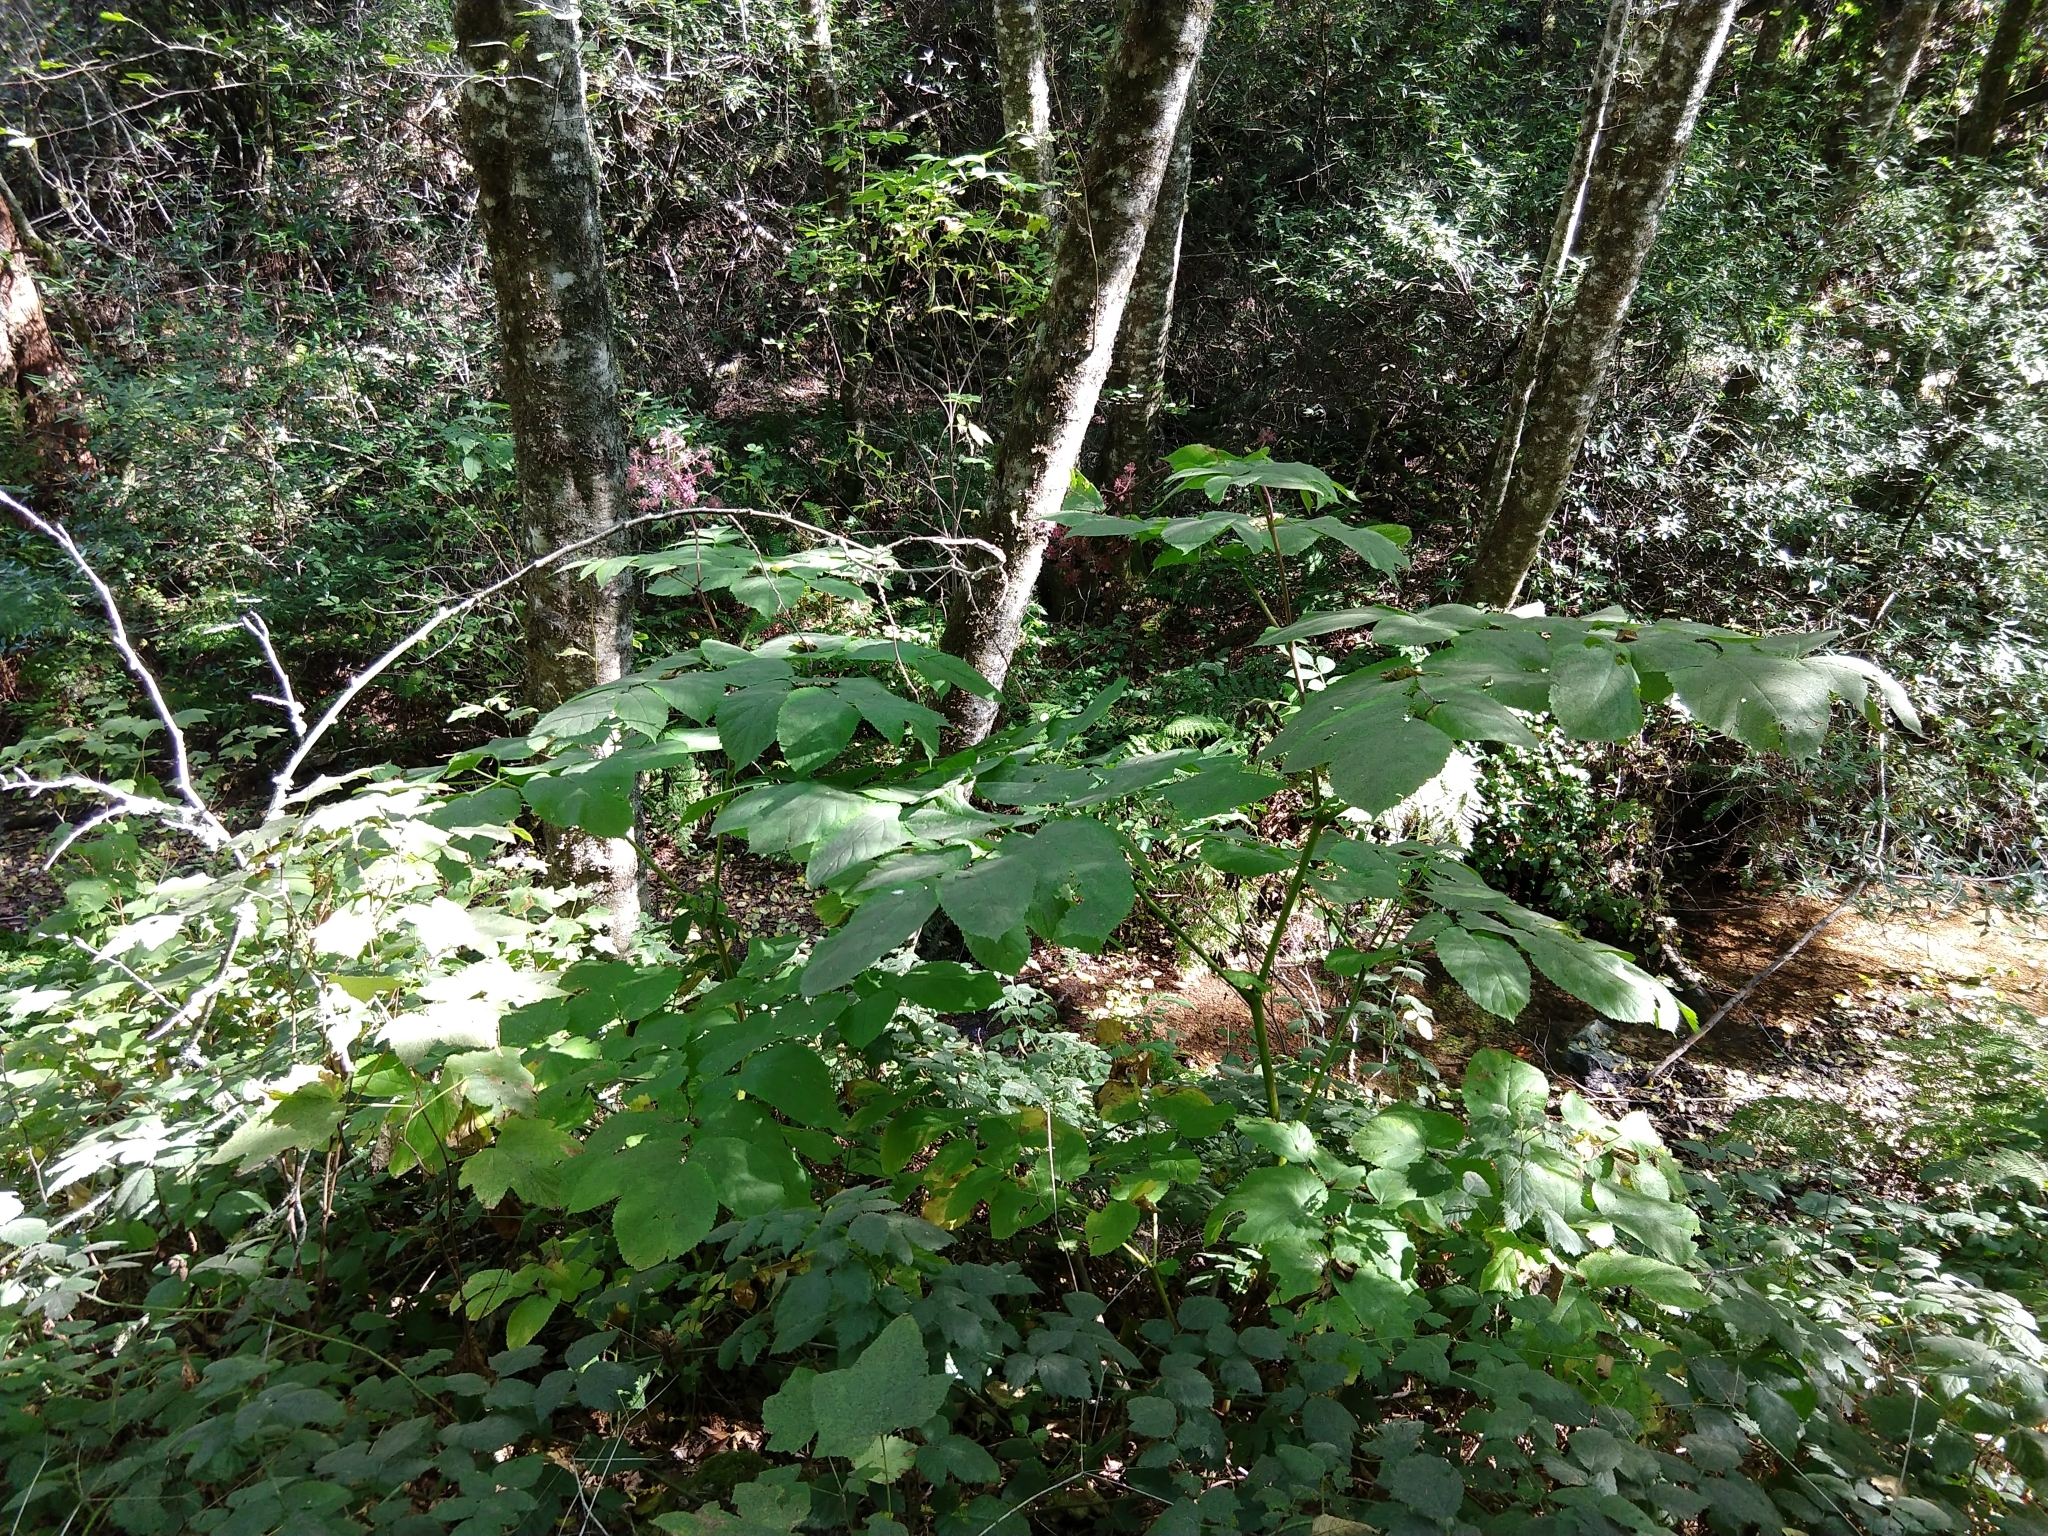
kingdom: Plantae
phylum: Tracheophyta
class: Magnoliopsida
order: Apiales
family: Araliaceae
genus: Aralia
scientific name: Aralia californica
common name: California-ginseng
